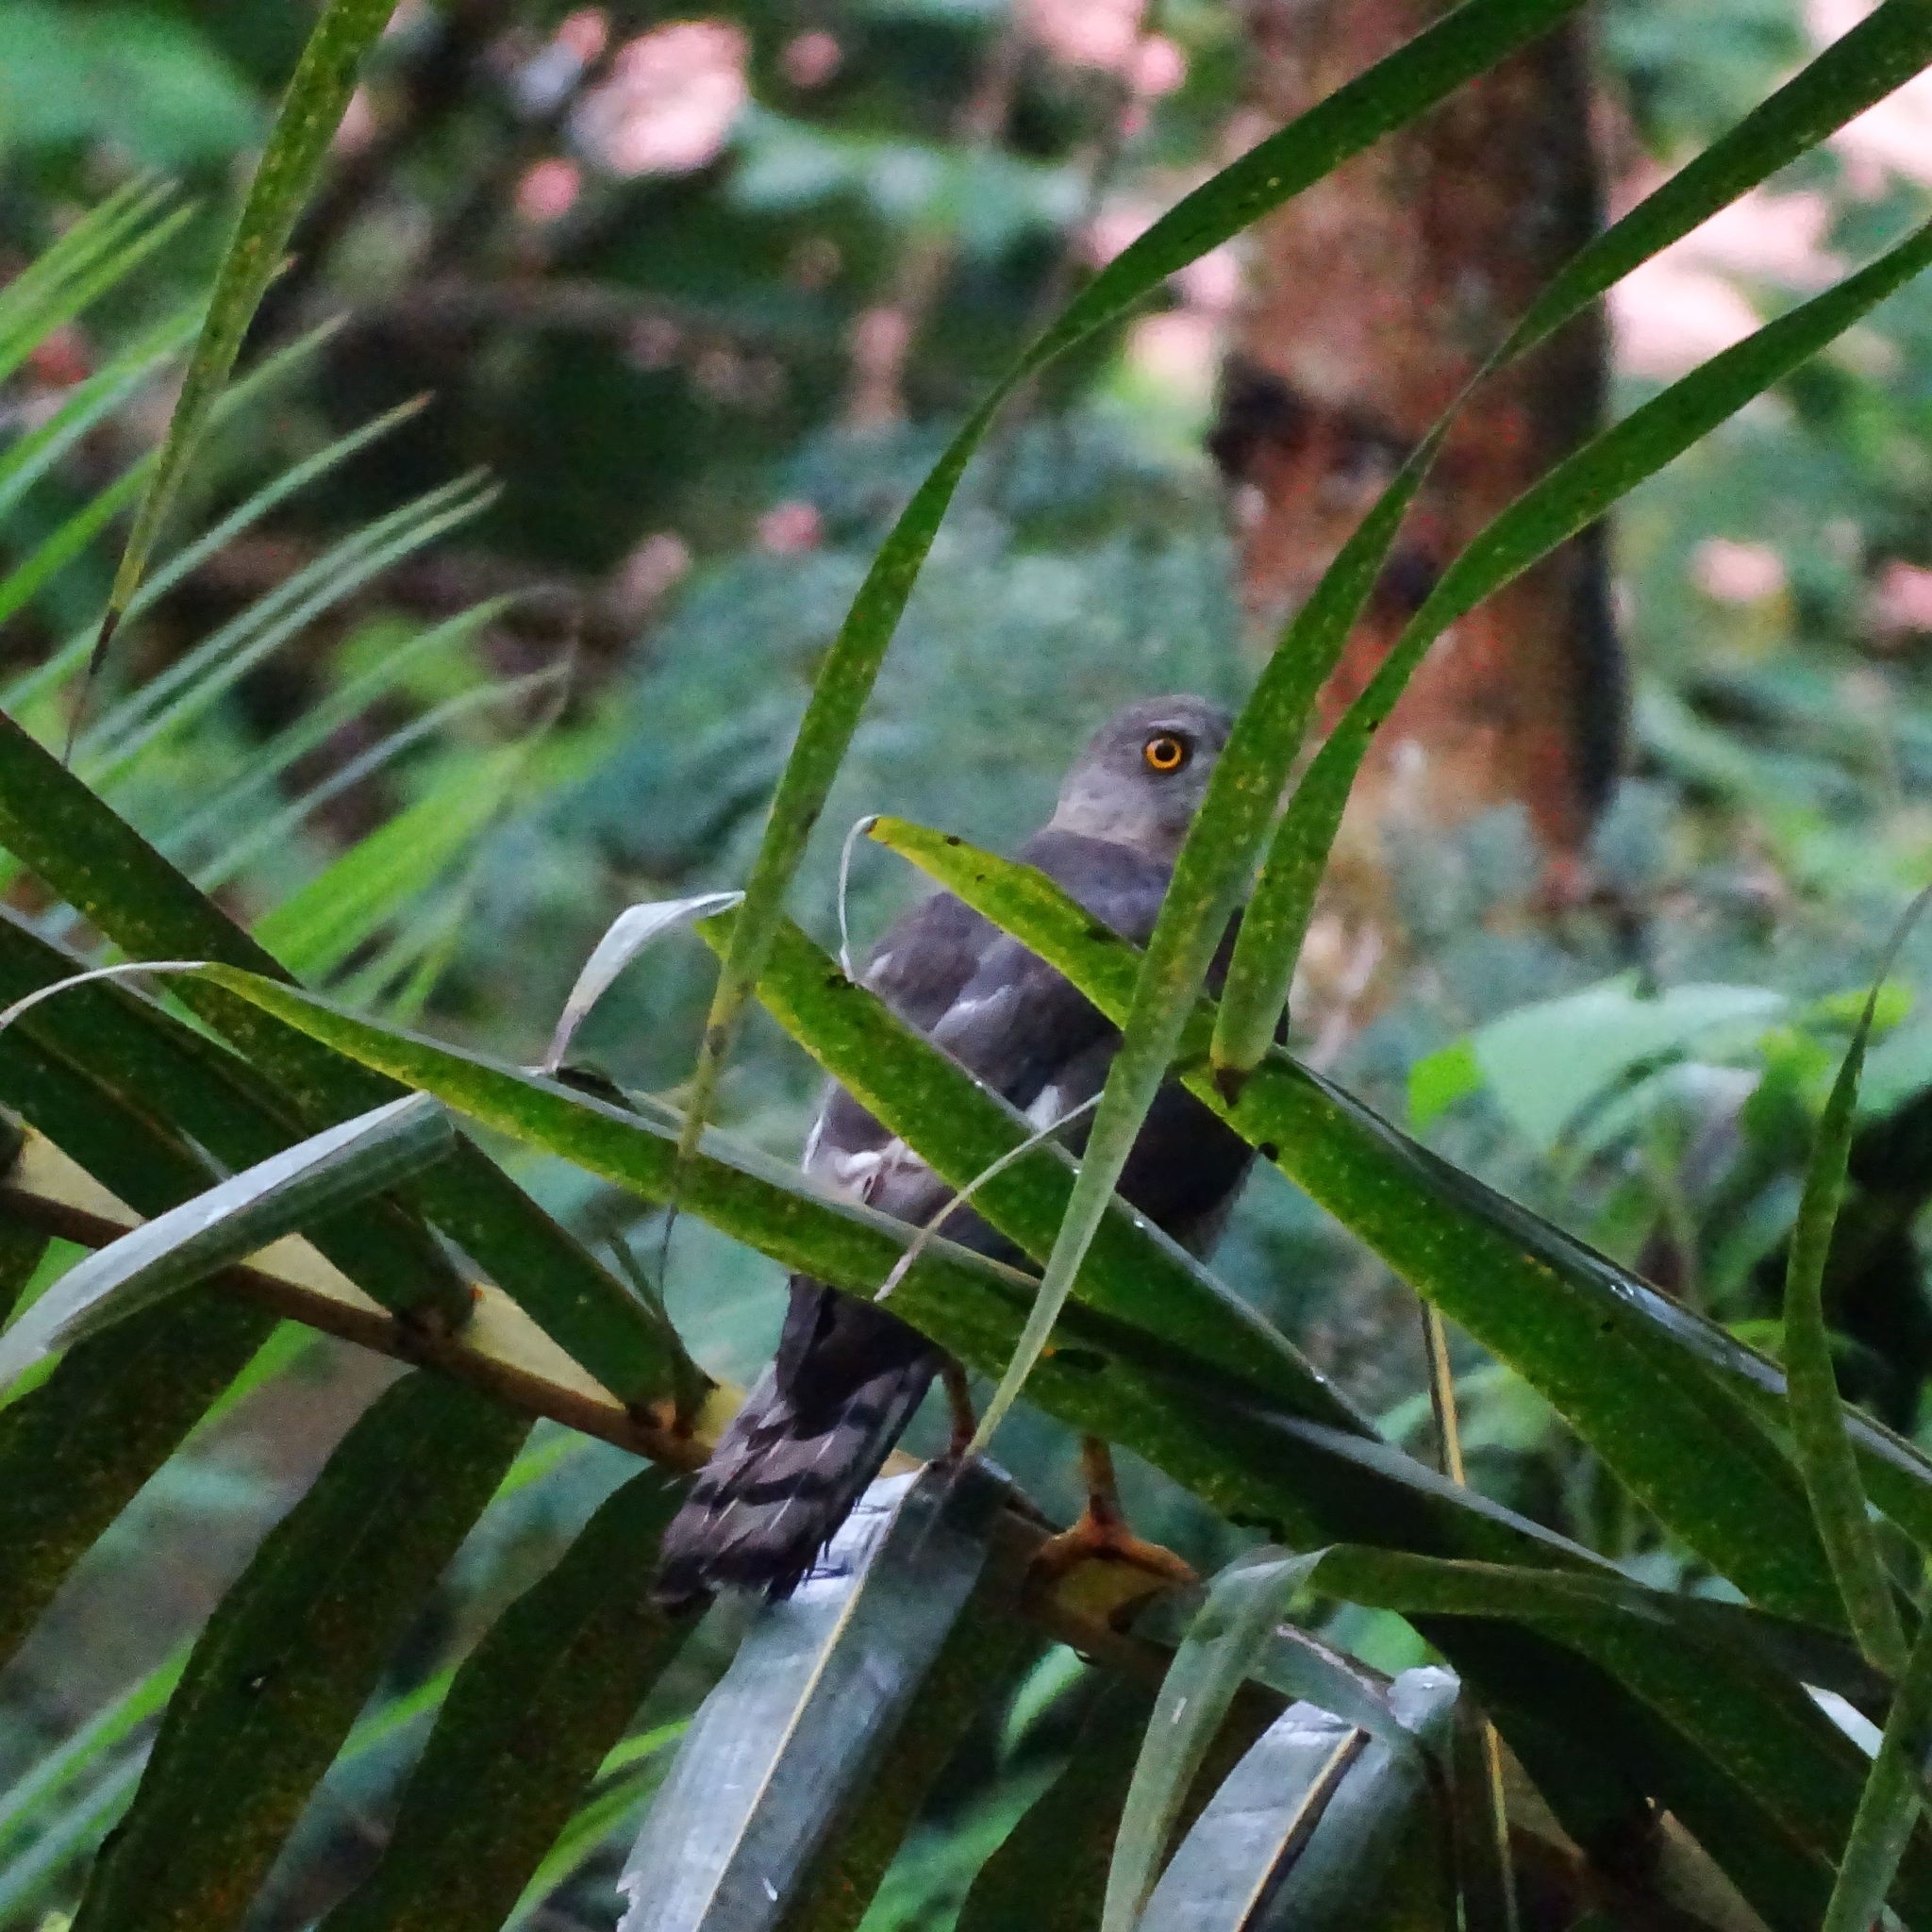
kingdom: Animalia
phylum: Chordata
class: Aves
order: Accipitriformes
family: Accipitridae
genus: Accipiter
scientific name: Accipiter badius
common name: Shikra
